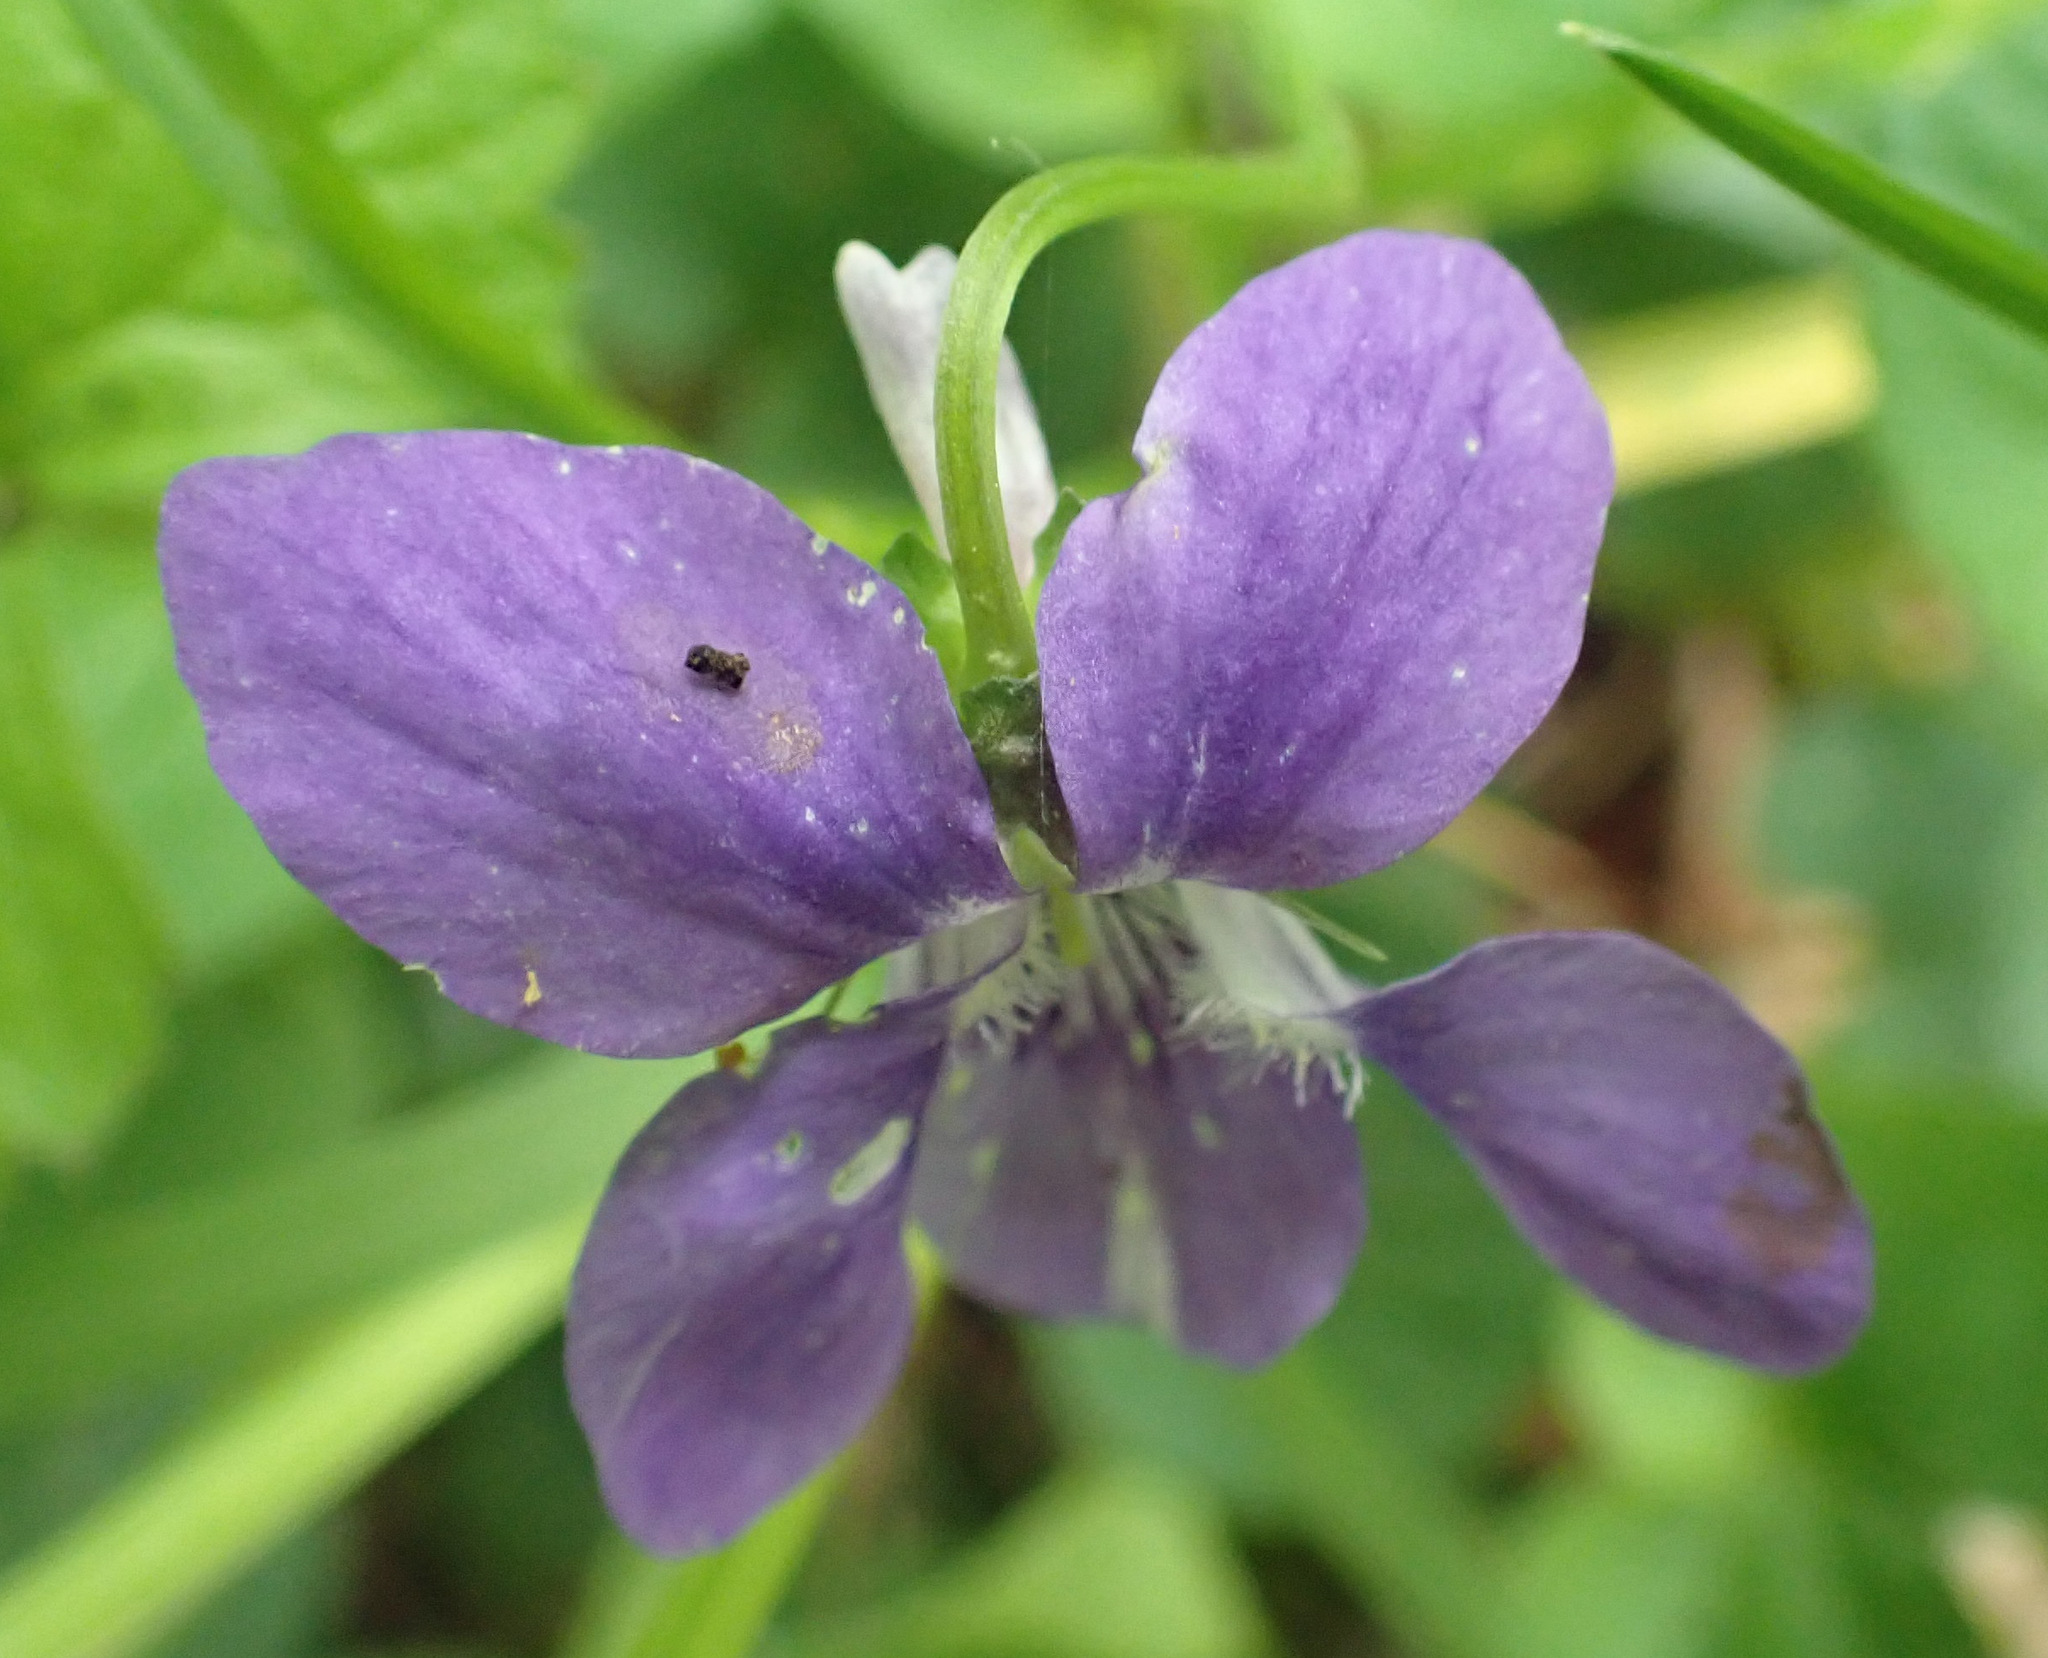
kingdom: Plantae
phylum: Tracheophyta
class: Magnoliopsida
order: Malpighiales
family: Violaceae
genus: Viola
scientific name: Viola riviniana
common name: Common dog-violet
